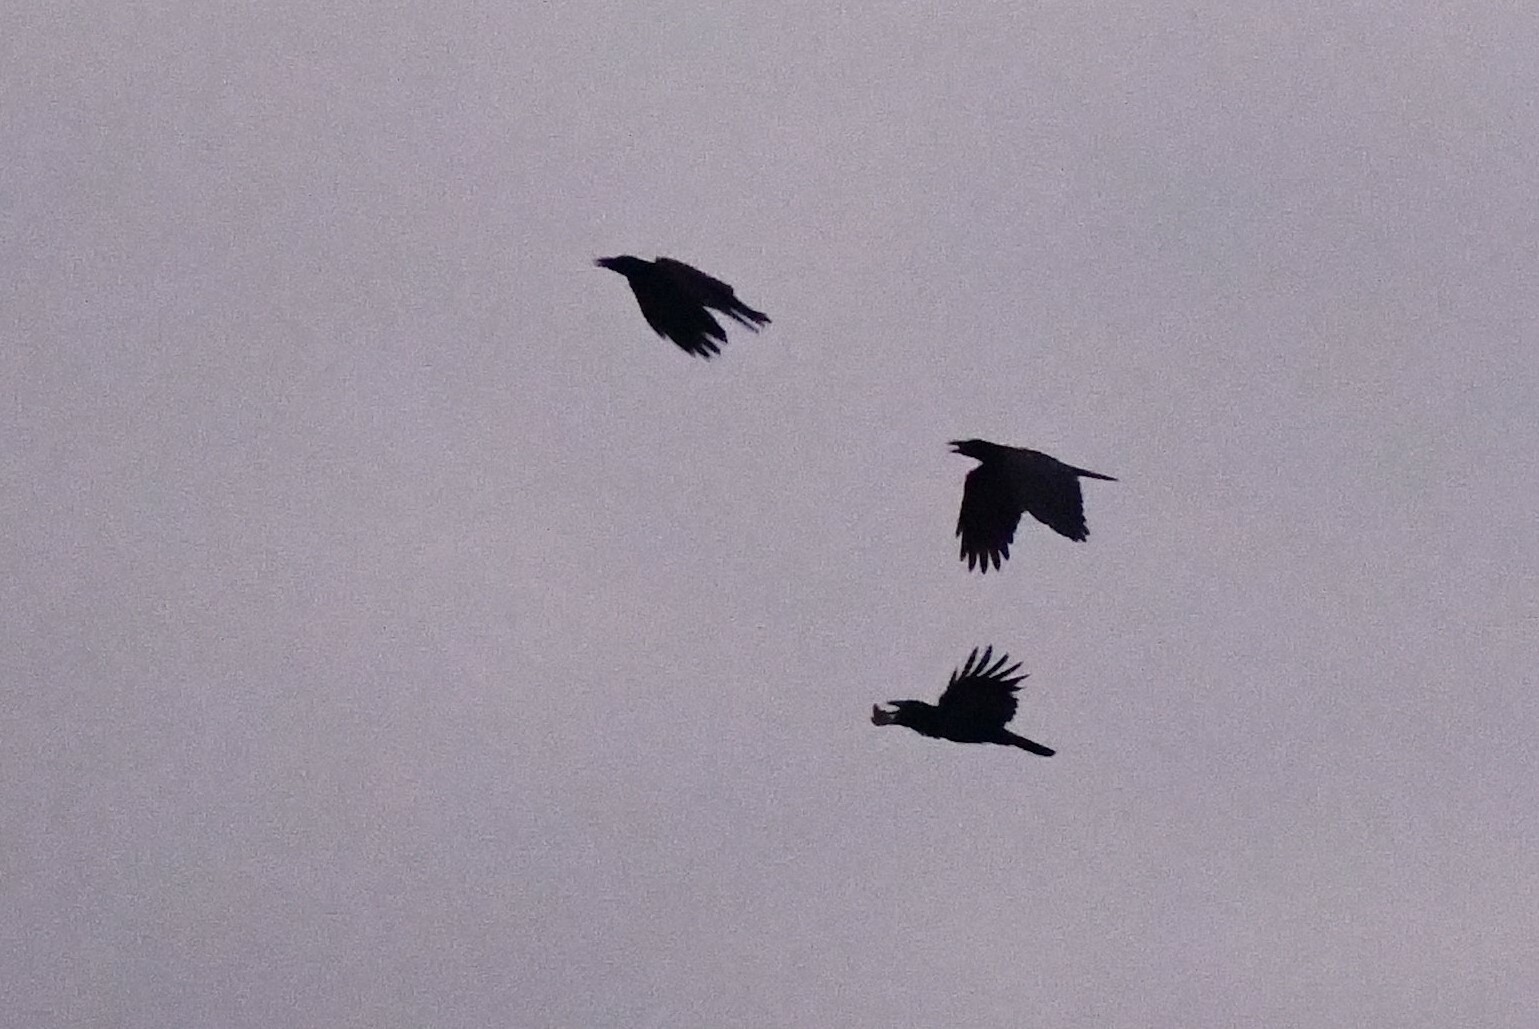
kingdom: Animalia
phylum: Chordata
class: Aves
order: Passeriformes
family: Corvidae
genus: Corvus
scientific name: Corvus macrorhynchos
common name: Large-billed crow
